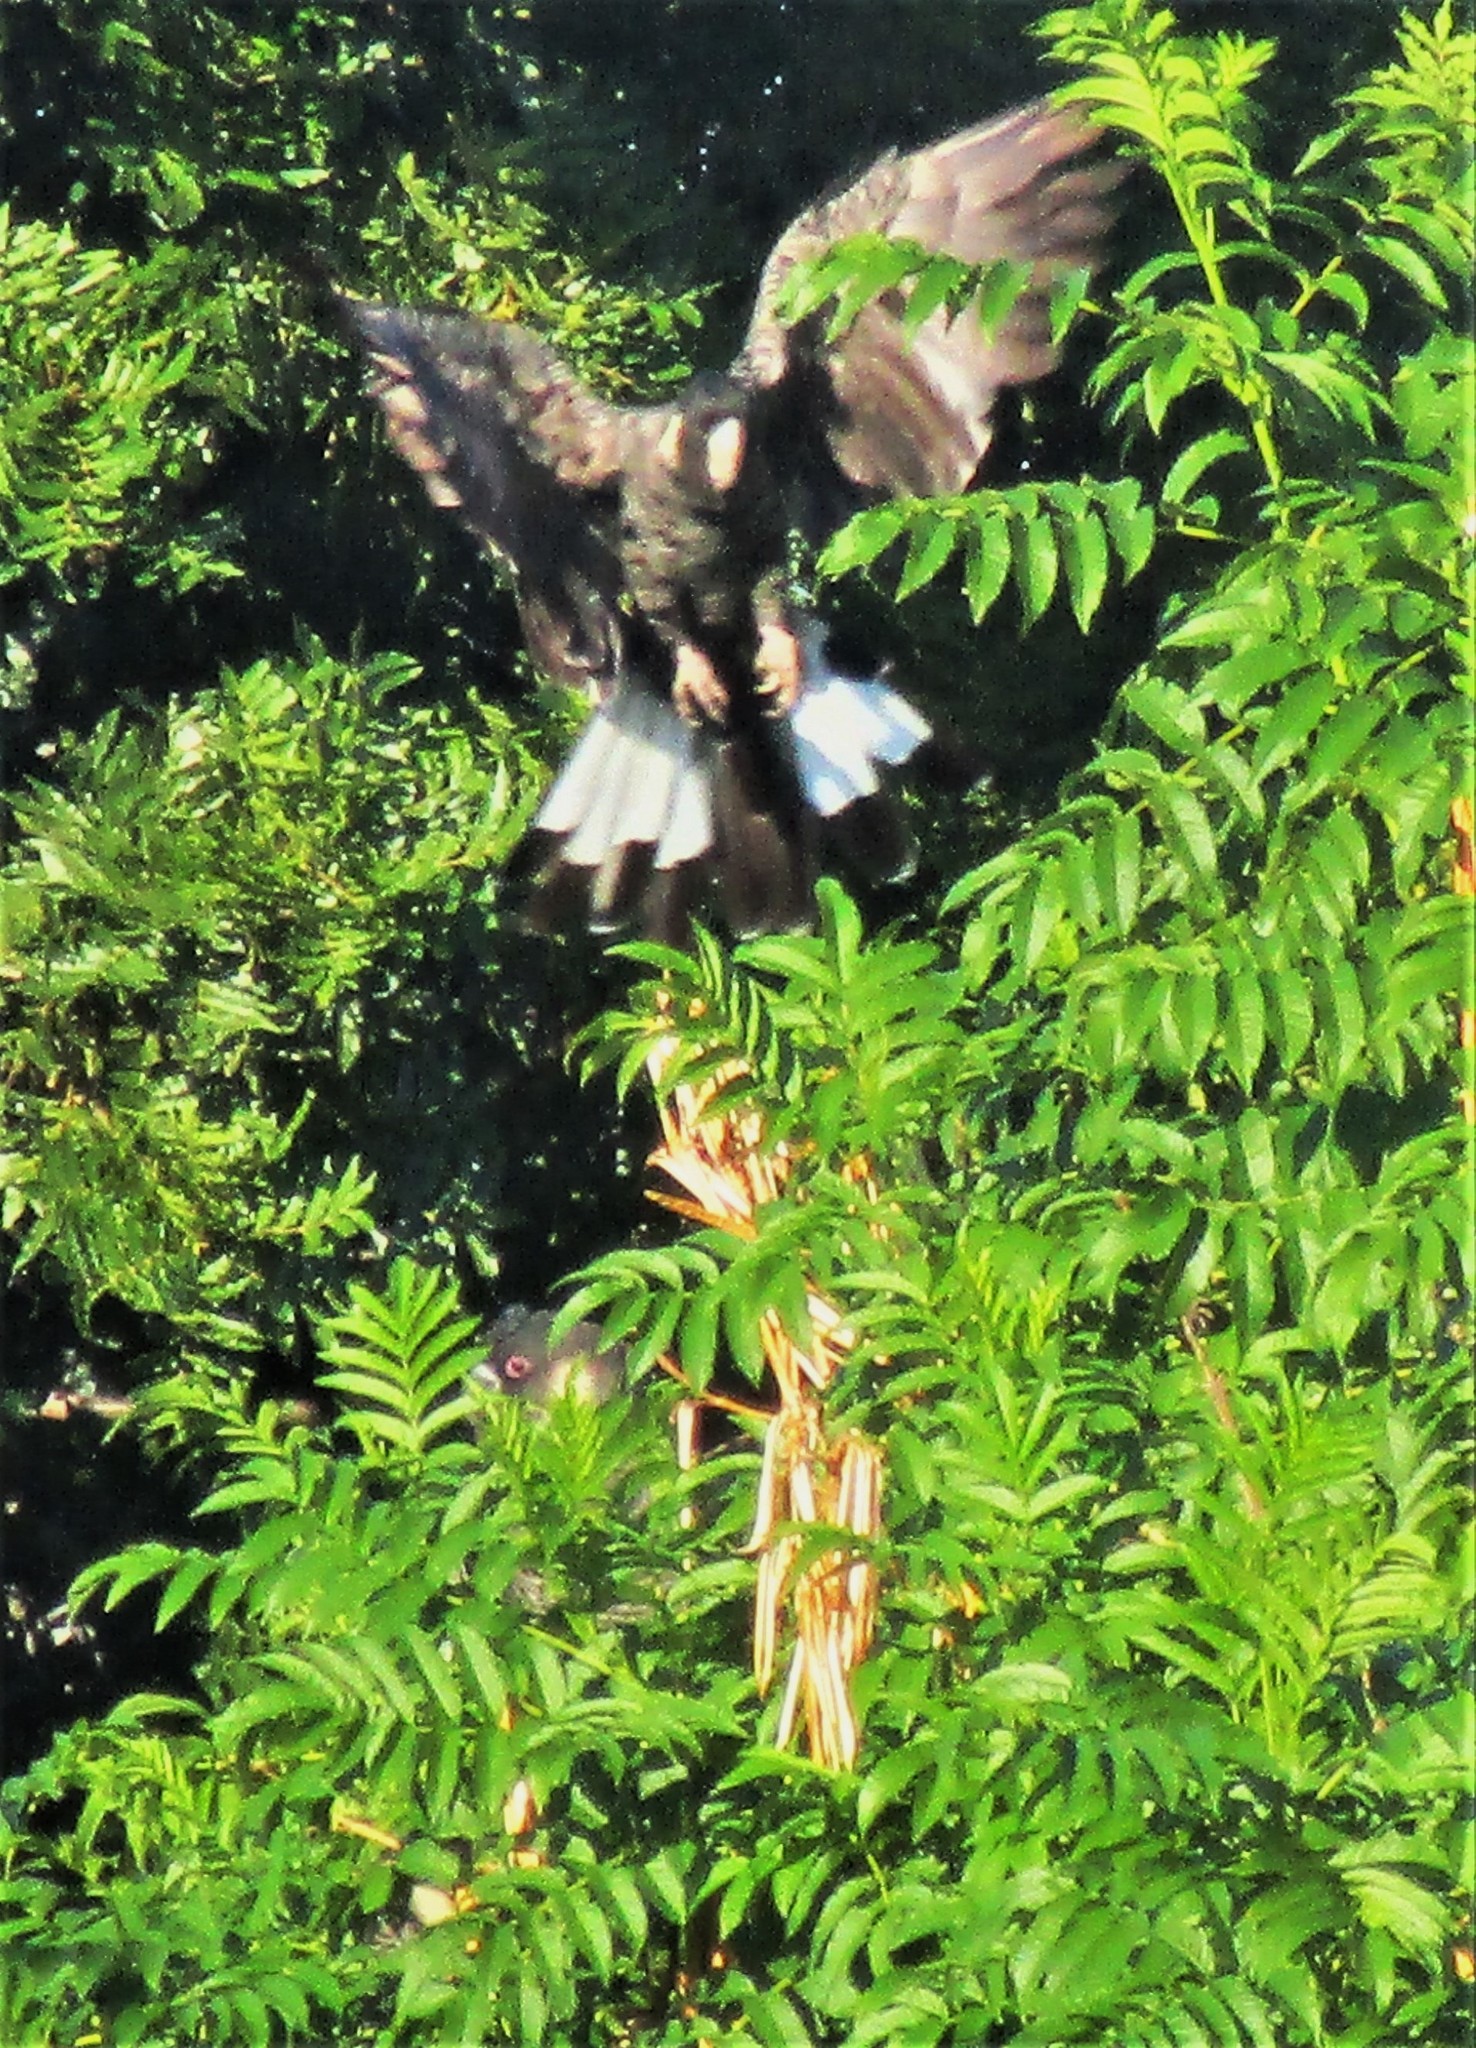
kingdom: Animalia
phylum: Chordata
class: Aves
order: Psittaciformes
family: Cacatuidae
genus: Zanda
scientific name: Zanda latirostris
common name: Short-billed black-cockatoo
